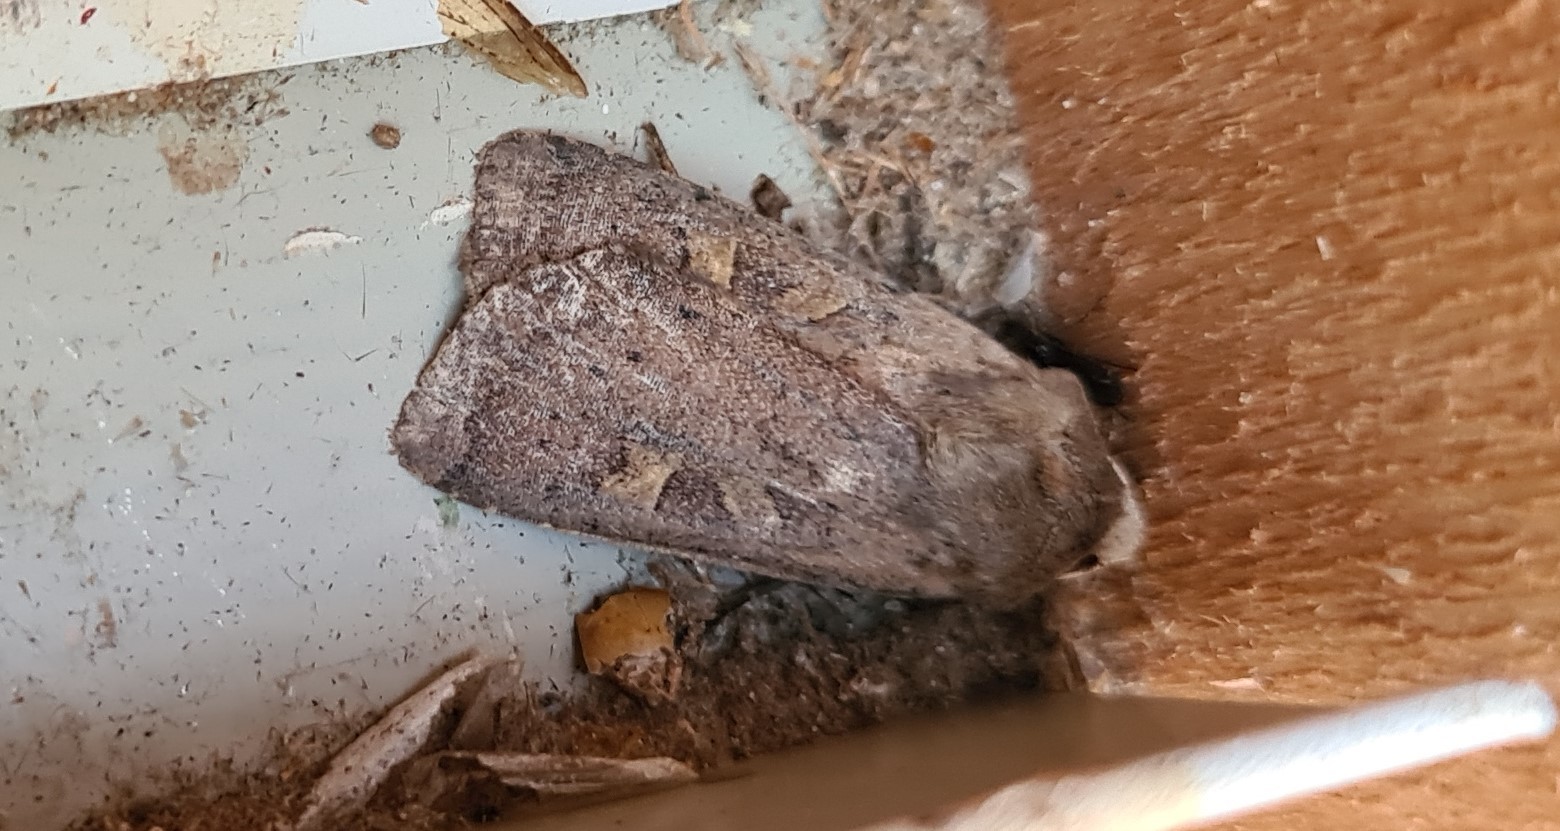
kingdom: Animalia
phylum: Arthropoda
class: Insecta
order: Lepidoptera
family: Noctuidae
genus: Xestia
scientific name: Xestia xanthographa
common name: Square-spot rustic
